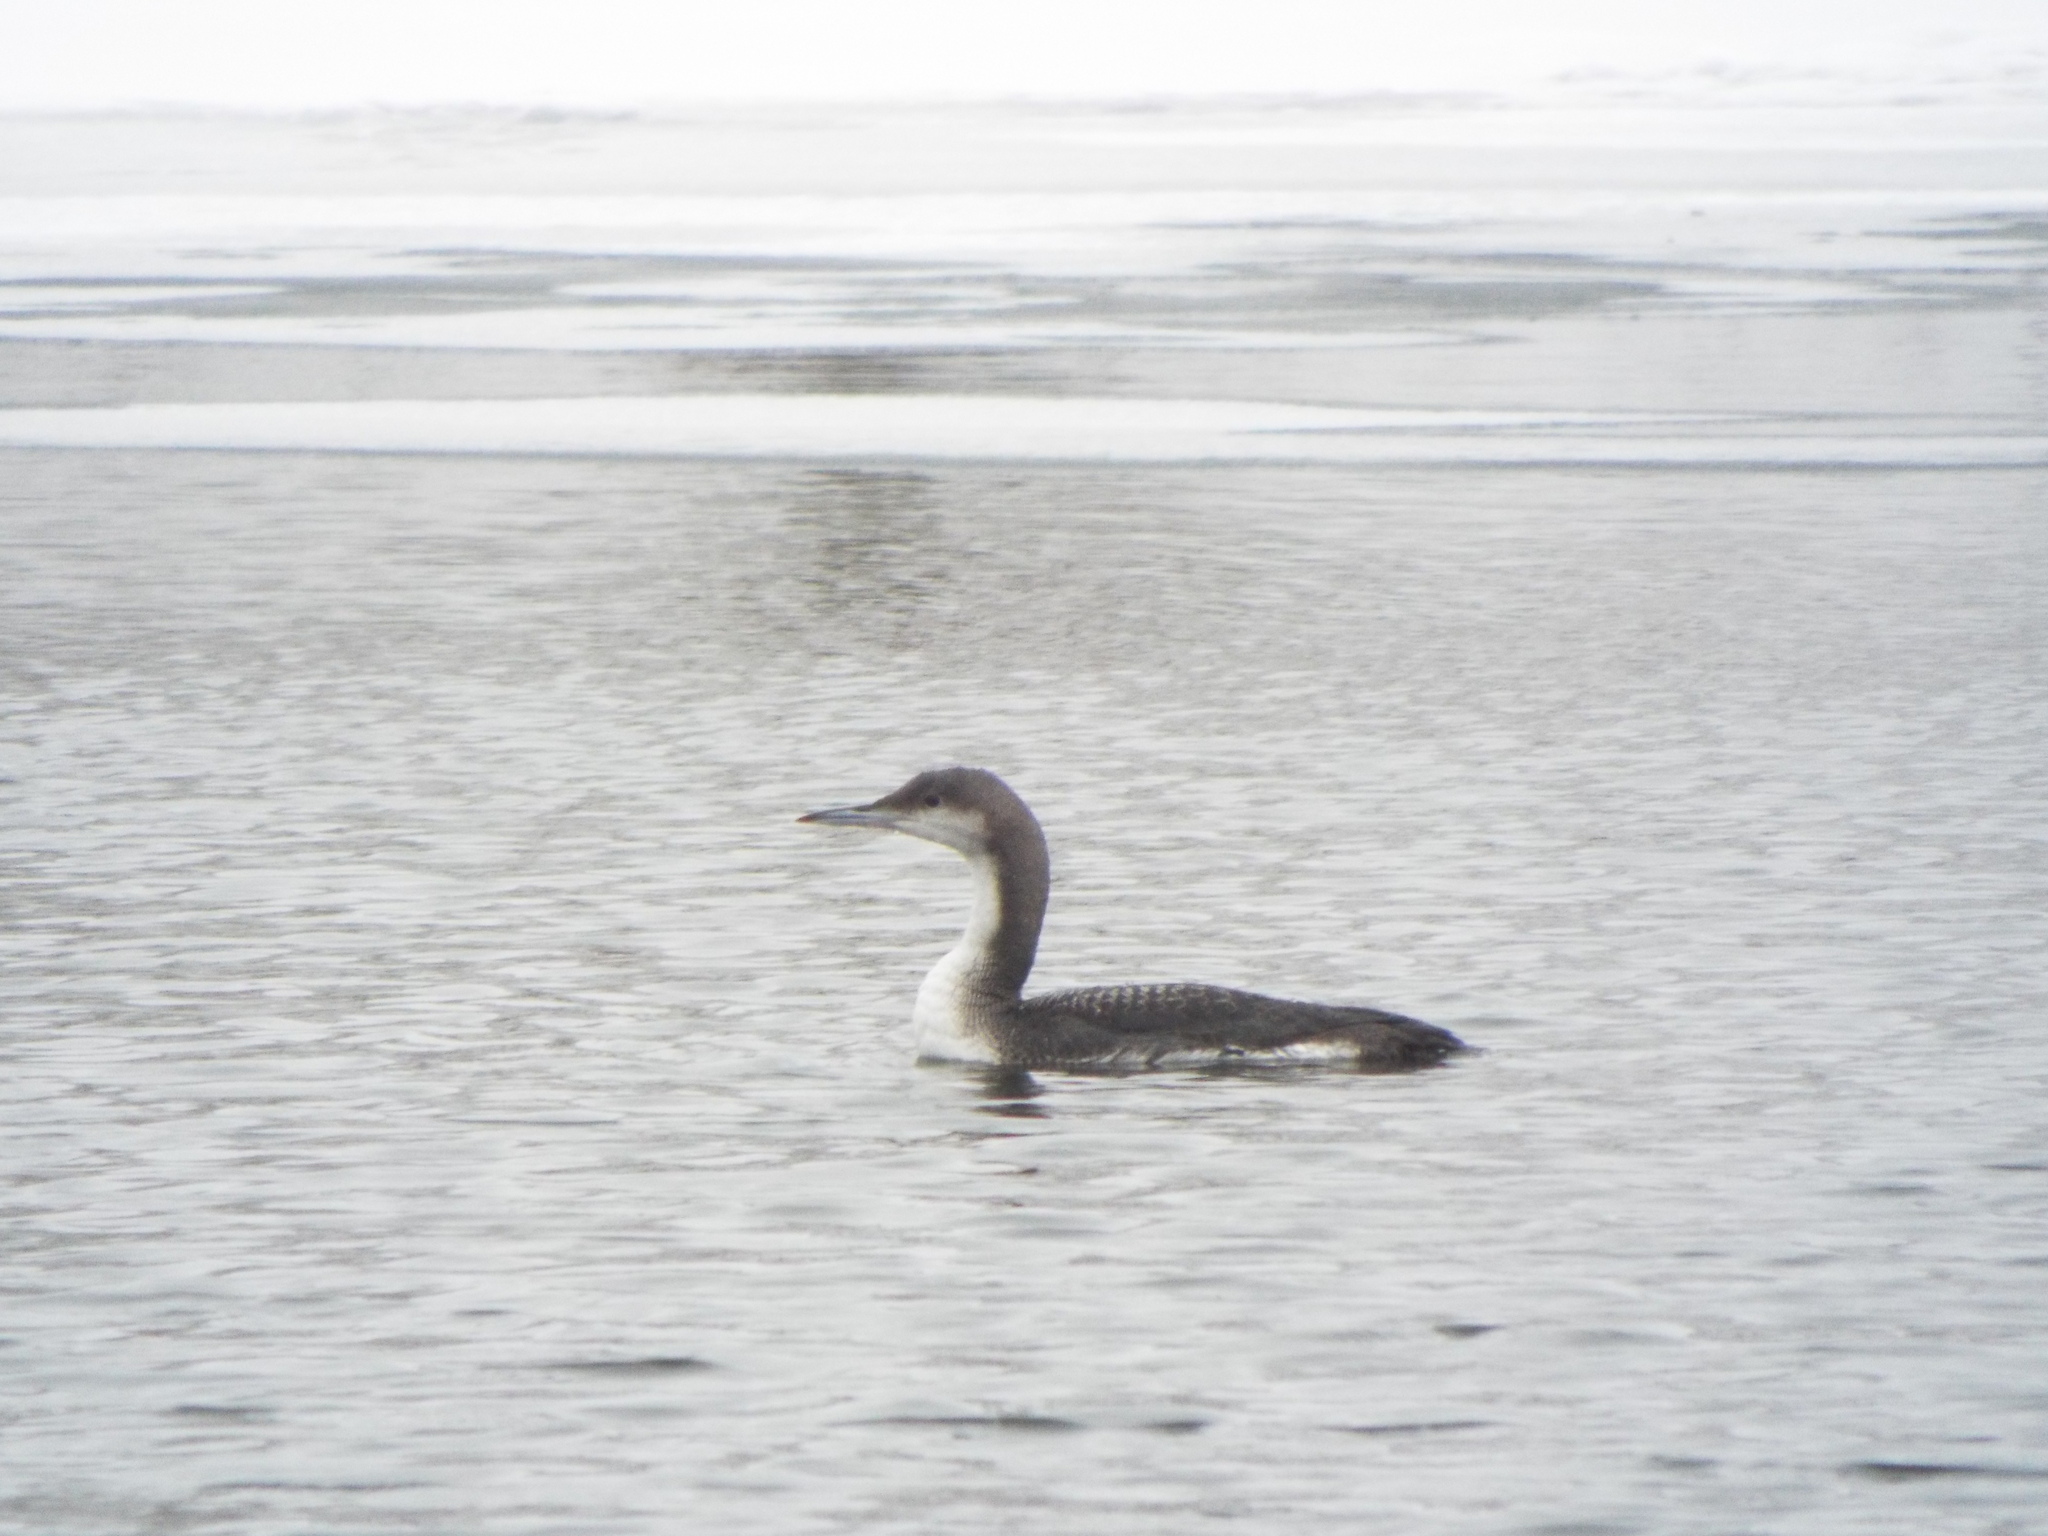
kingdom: Animalia
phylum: Chordata
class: Aves
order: Gaviiformes
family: Gaviidae
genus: Gavia
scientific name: Gavia arctica
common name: Black-throated loon
